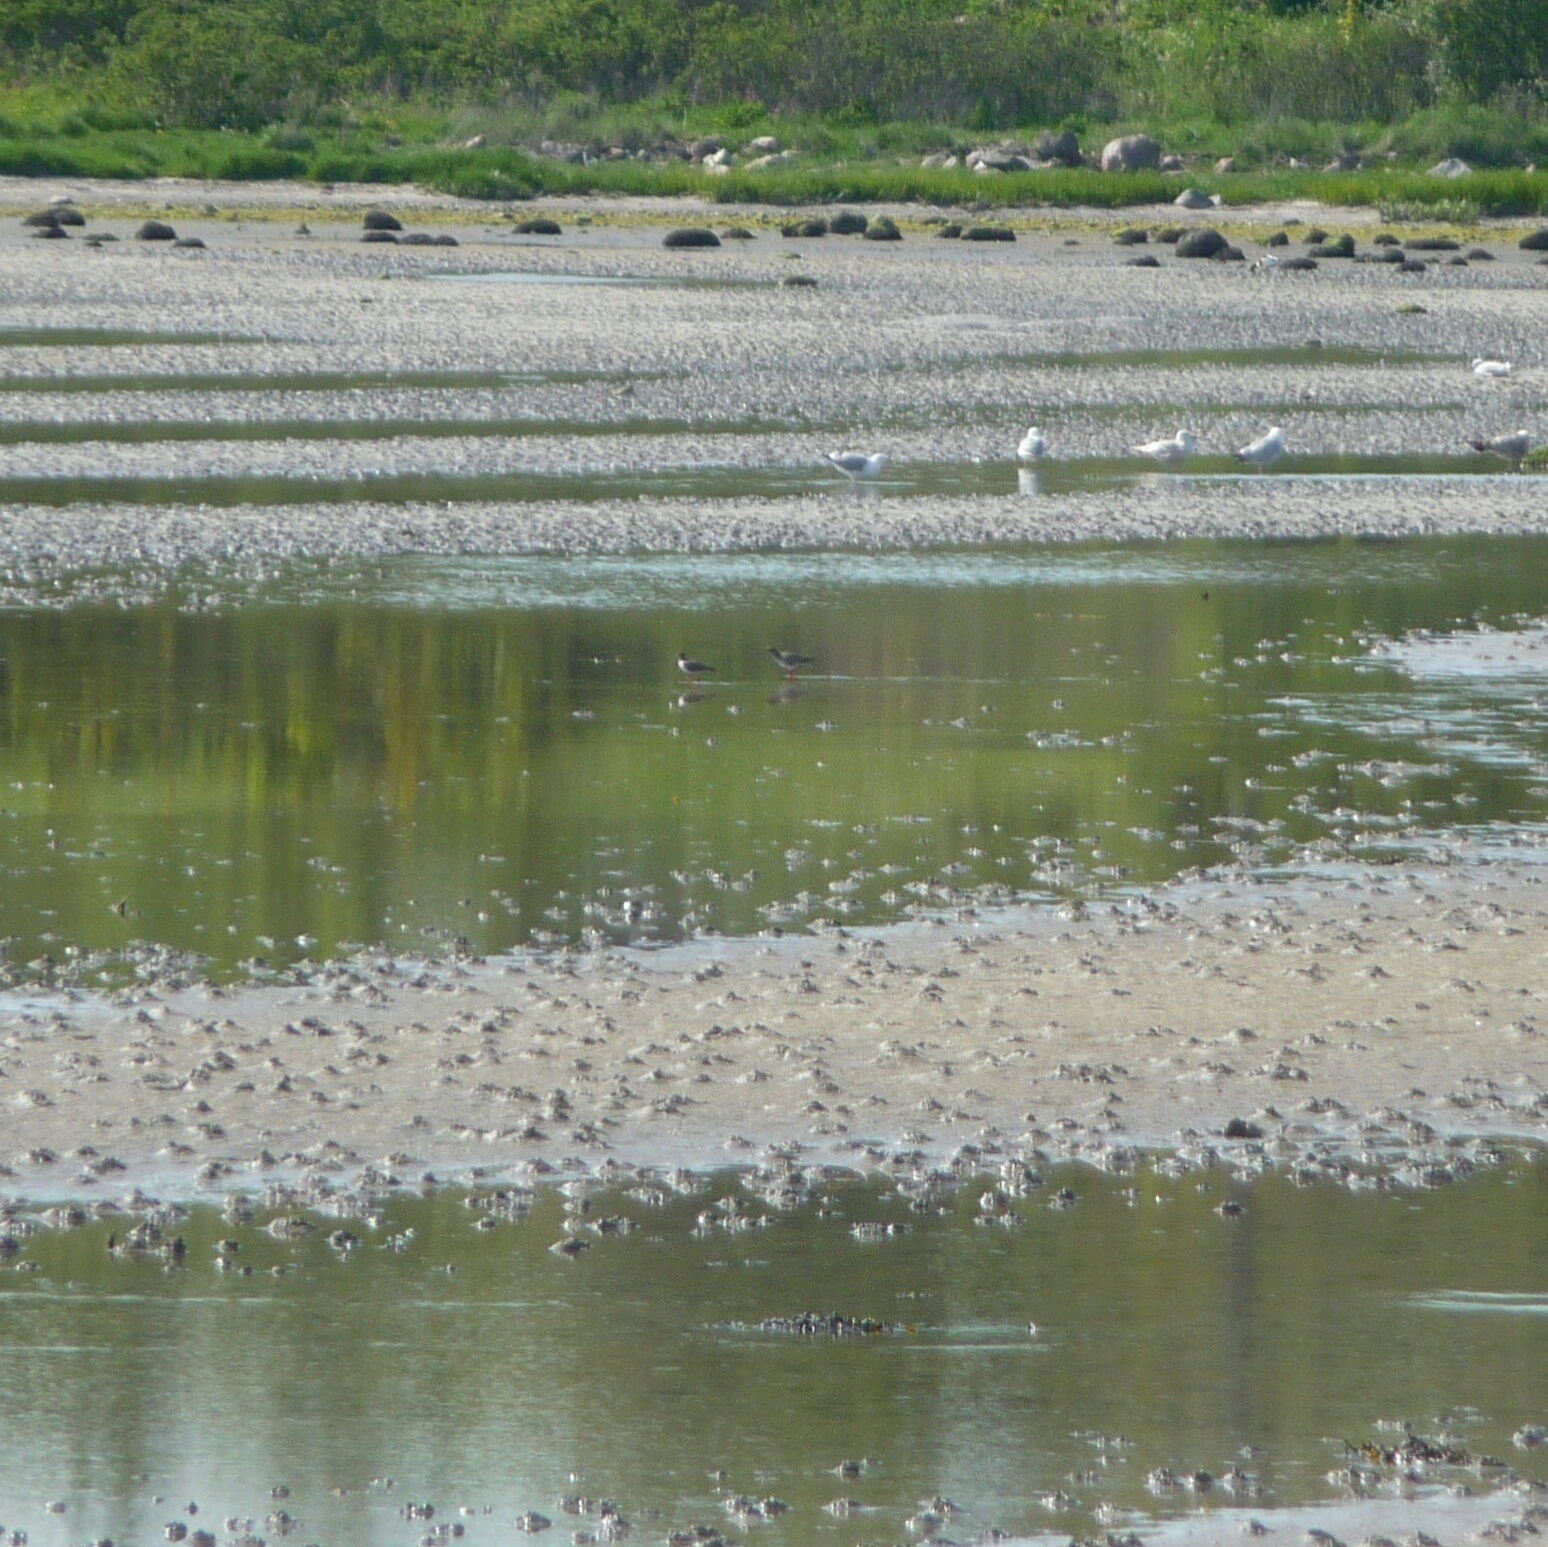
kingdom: Animalia
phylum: Chordata
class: Aves
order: Charadriiformes
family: Scolopacidae
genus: Tringa
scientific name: Tringa totanus
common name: Common redshank
